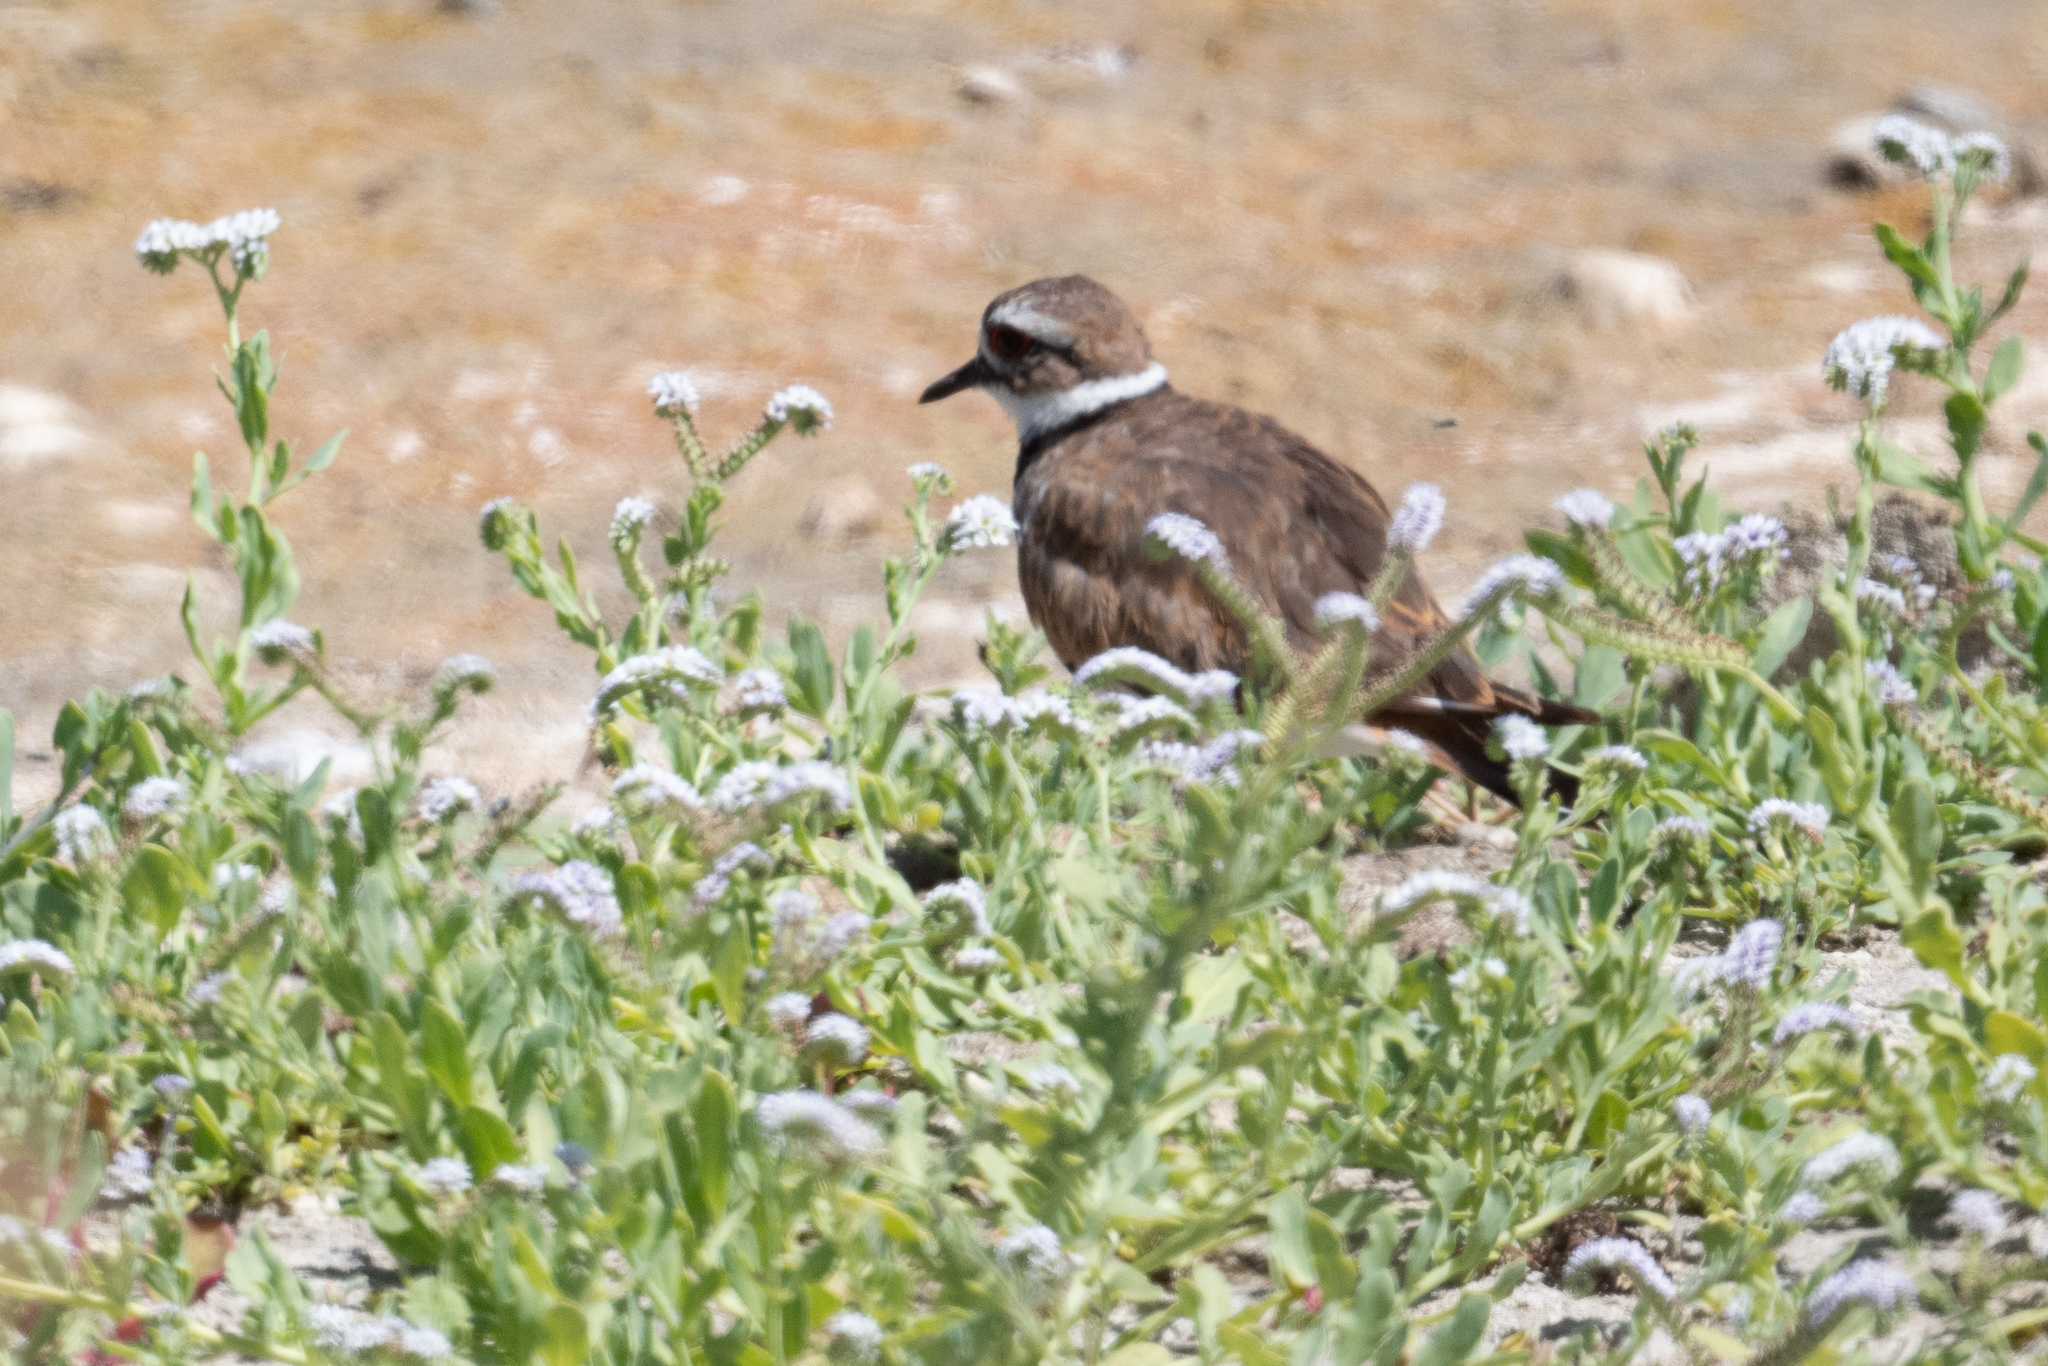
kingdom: Animalia
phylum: Chordata
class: Aves
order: Charadriiformes
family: Charadriidae
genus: Charadrius
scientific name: Charadrius vociferus
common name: Killdeer
